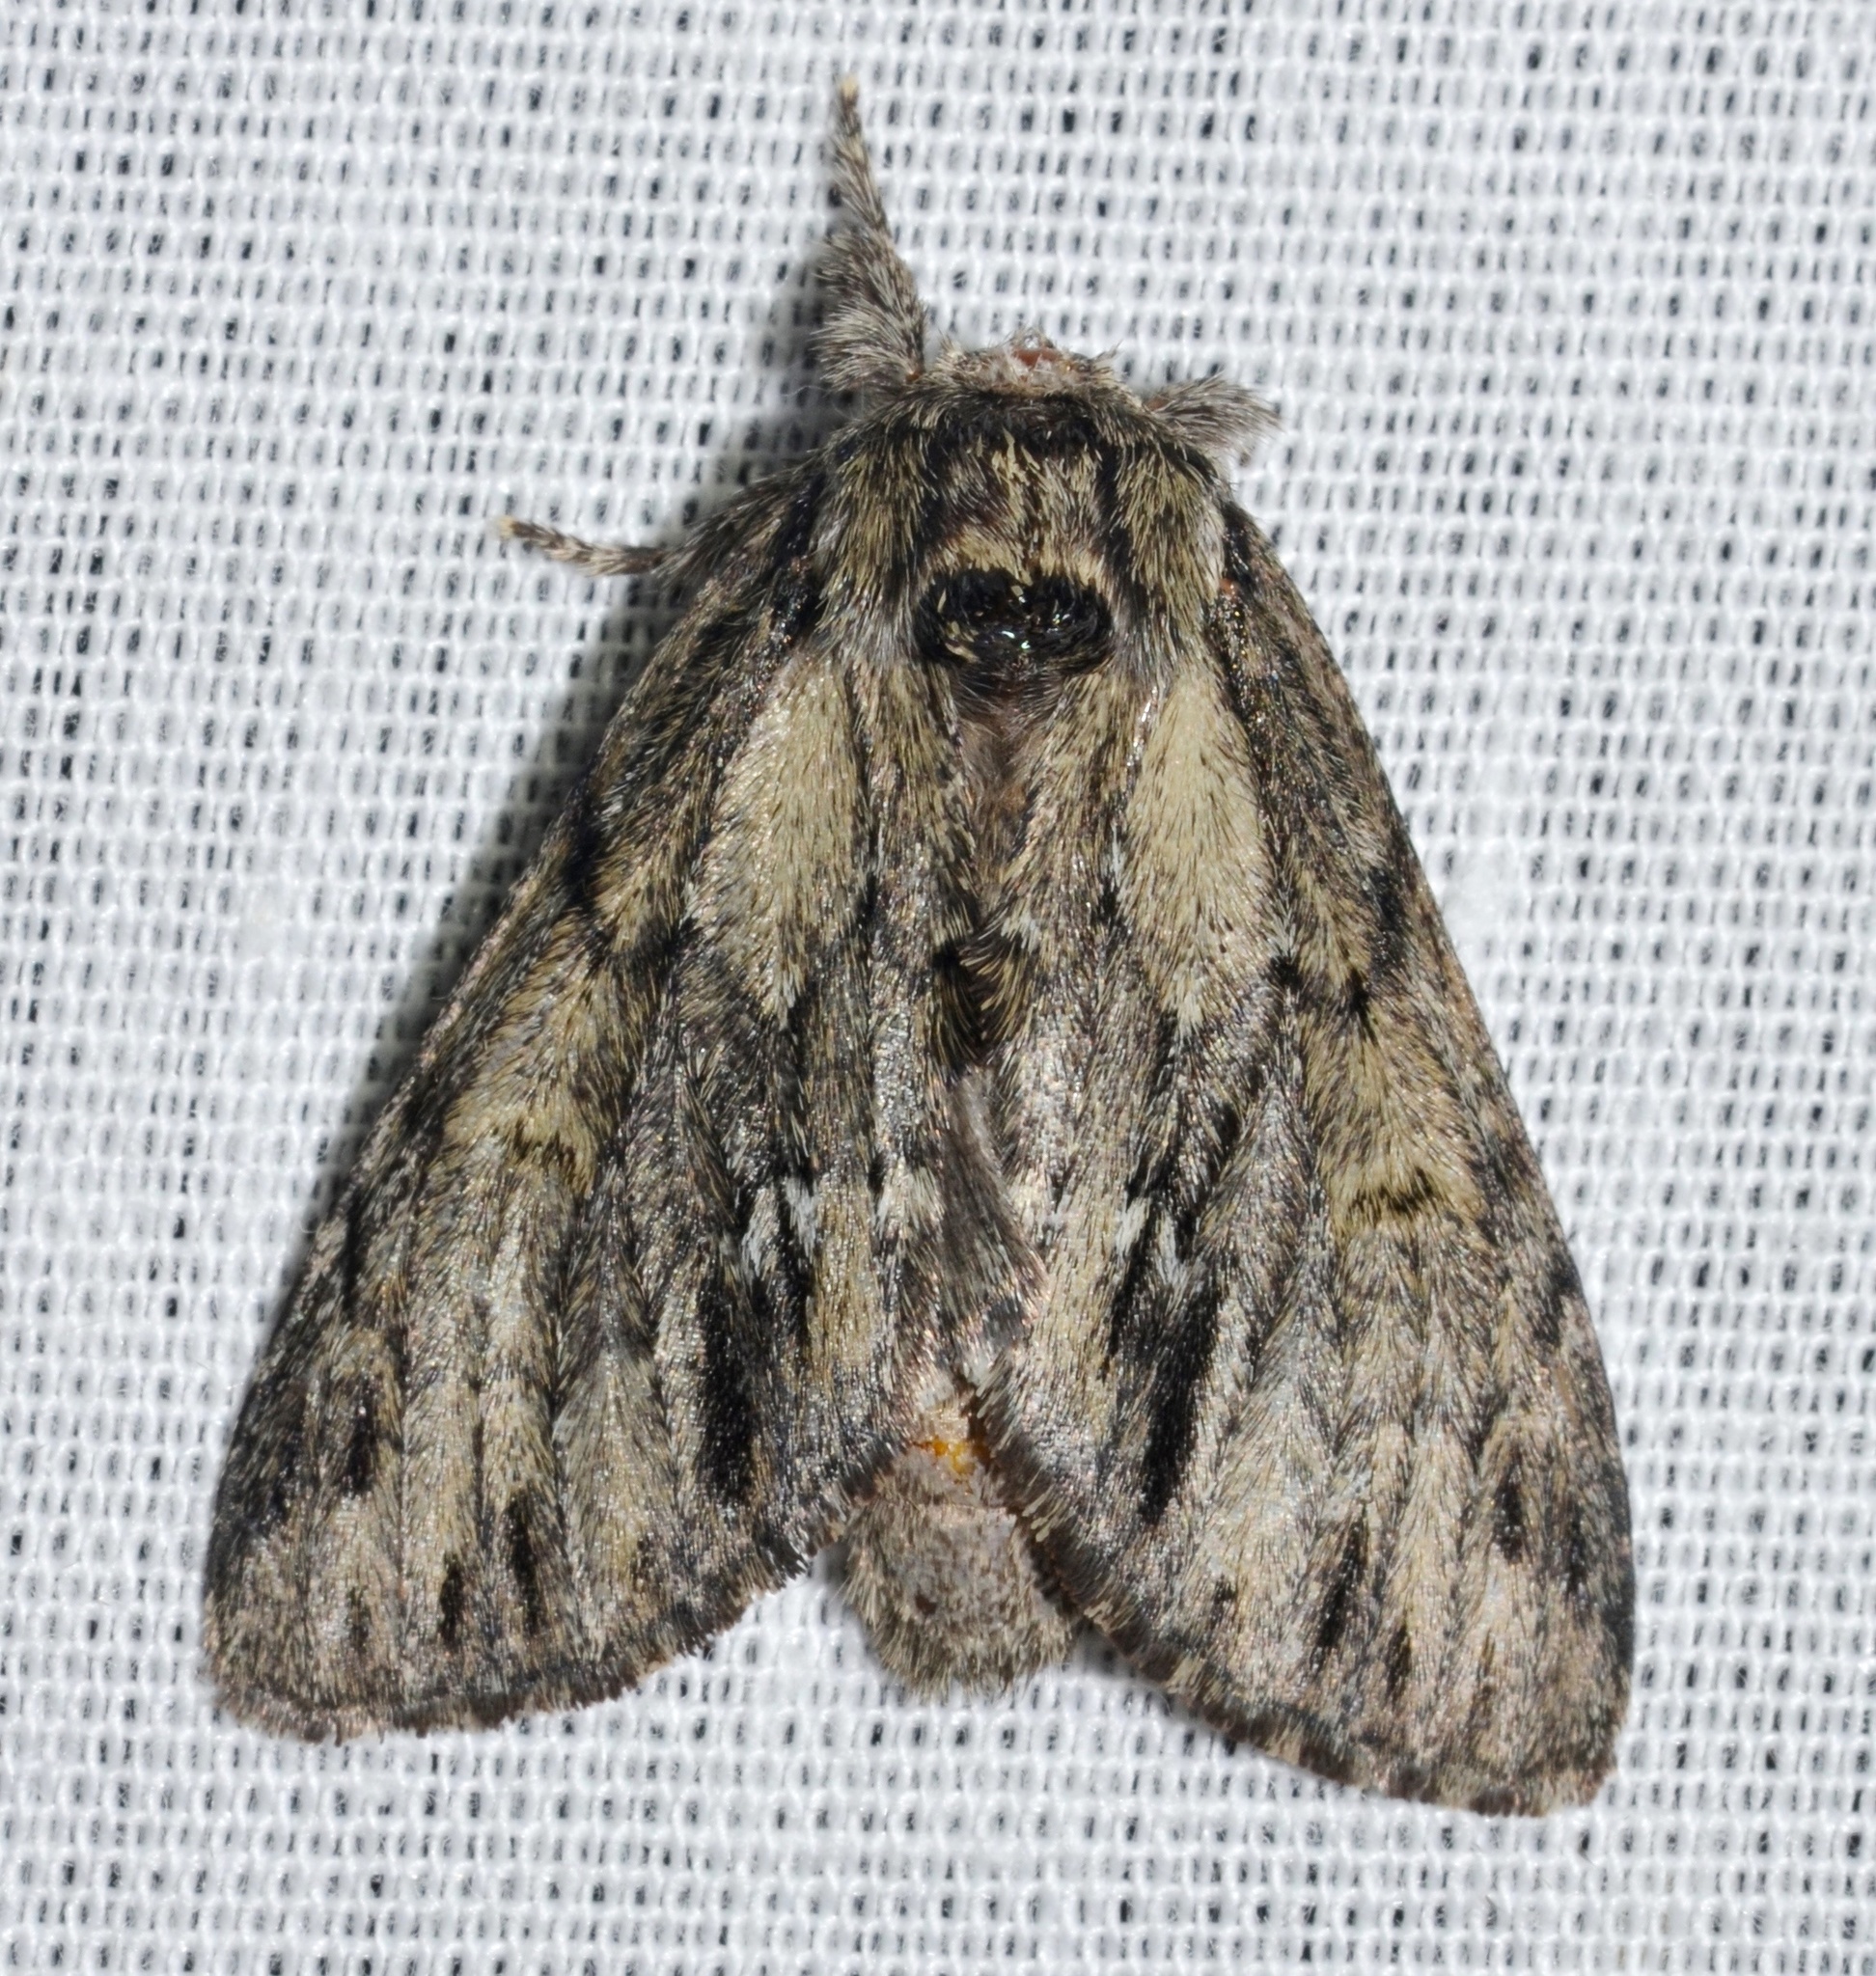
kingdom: Animalia
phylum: Arthropoda
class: Insecta
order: Lepidoptera
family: Notodontidae
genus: Paraeschra
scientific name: Paraeschra georgica
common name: Georgian prominent
